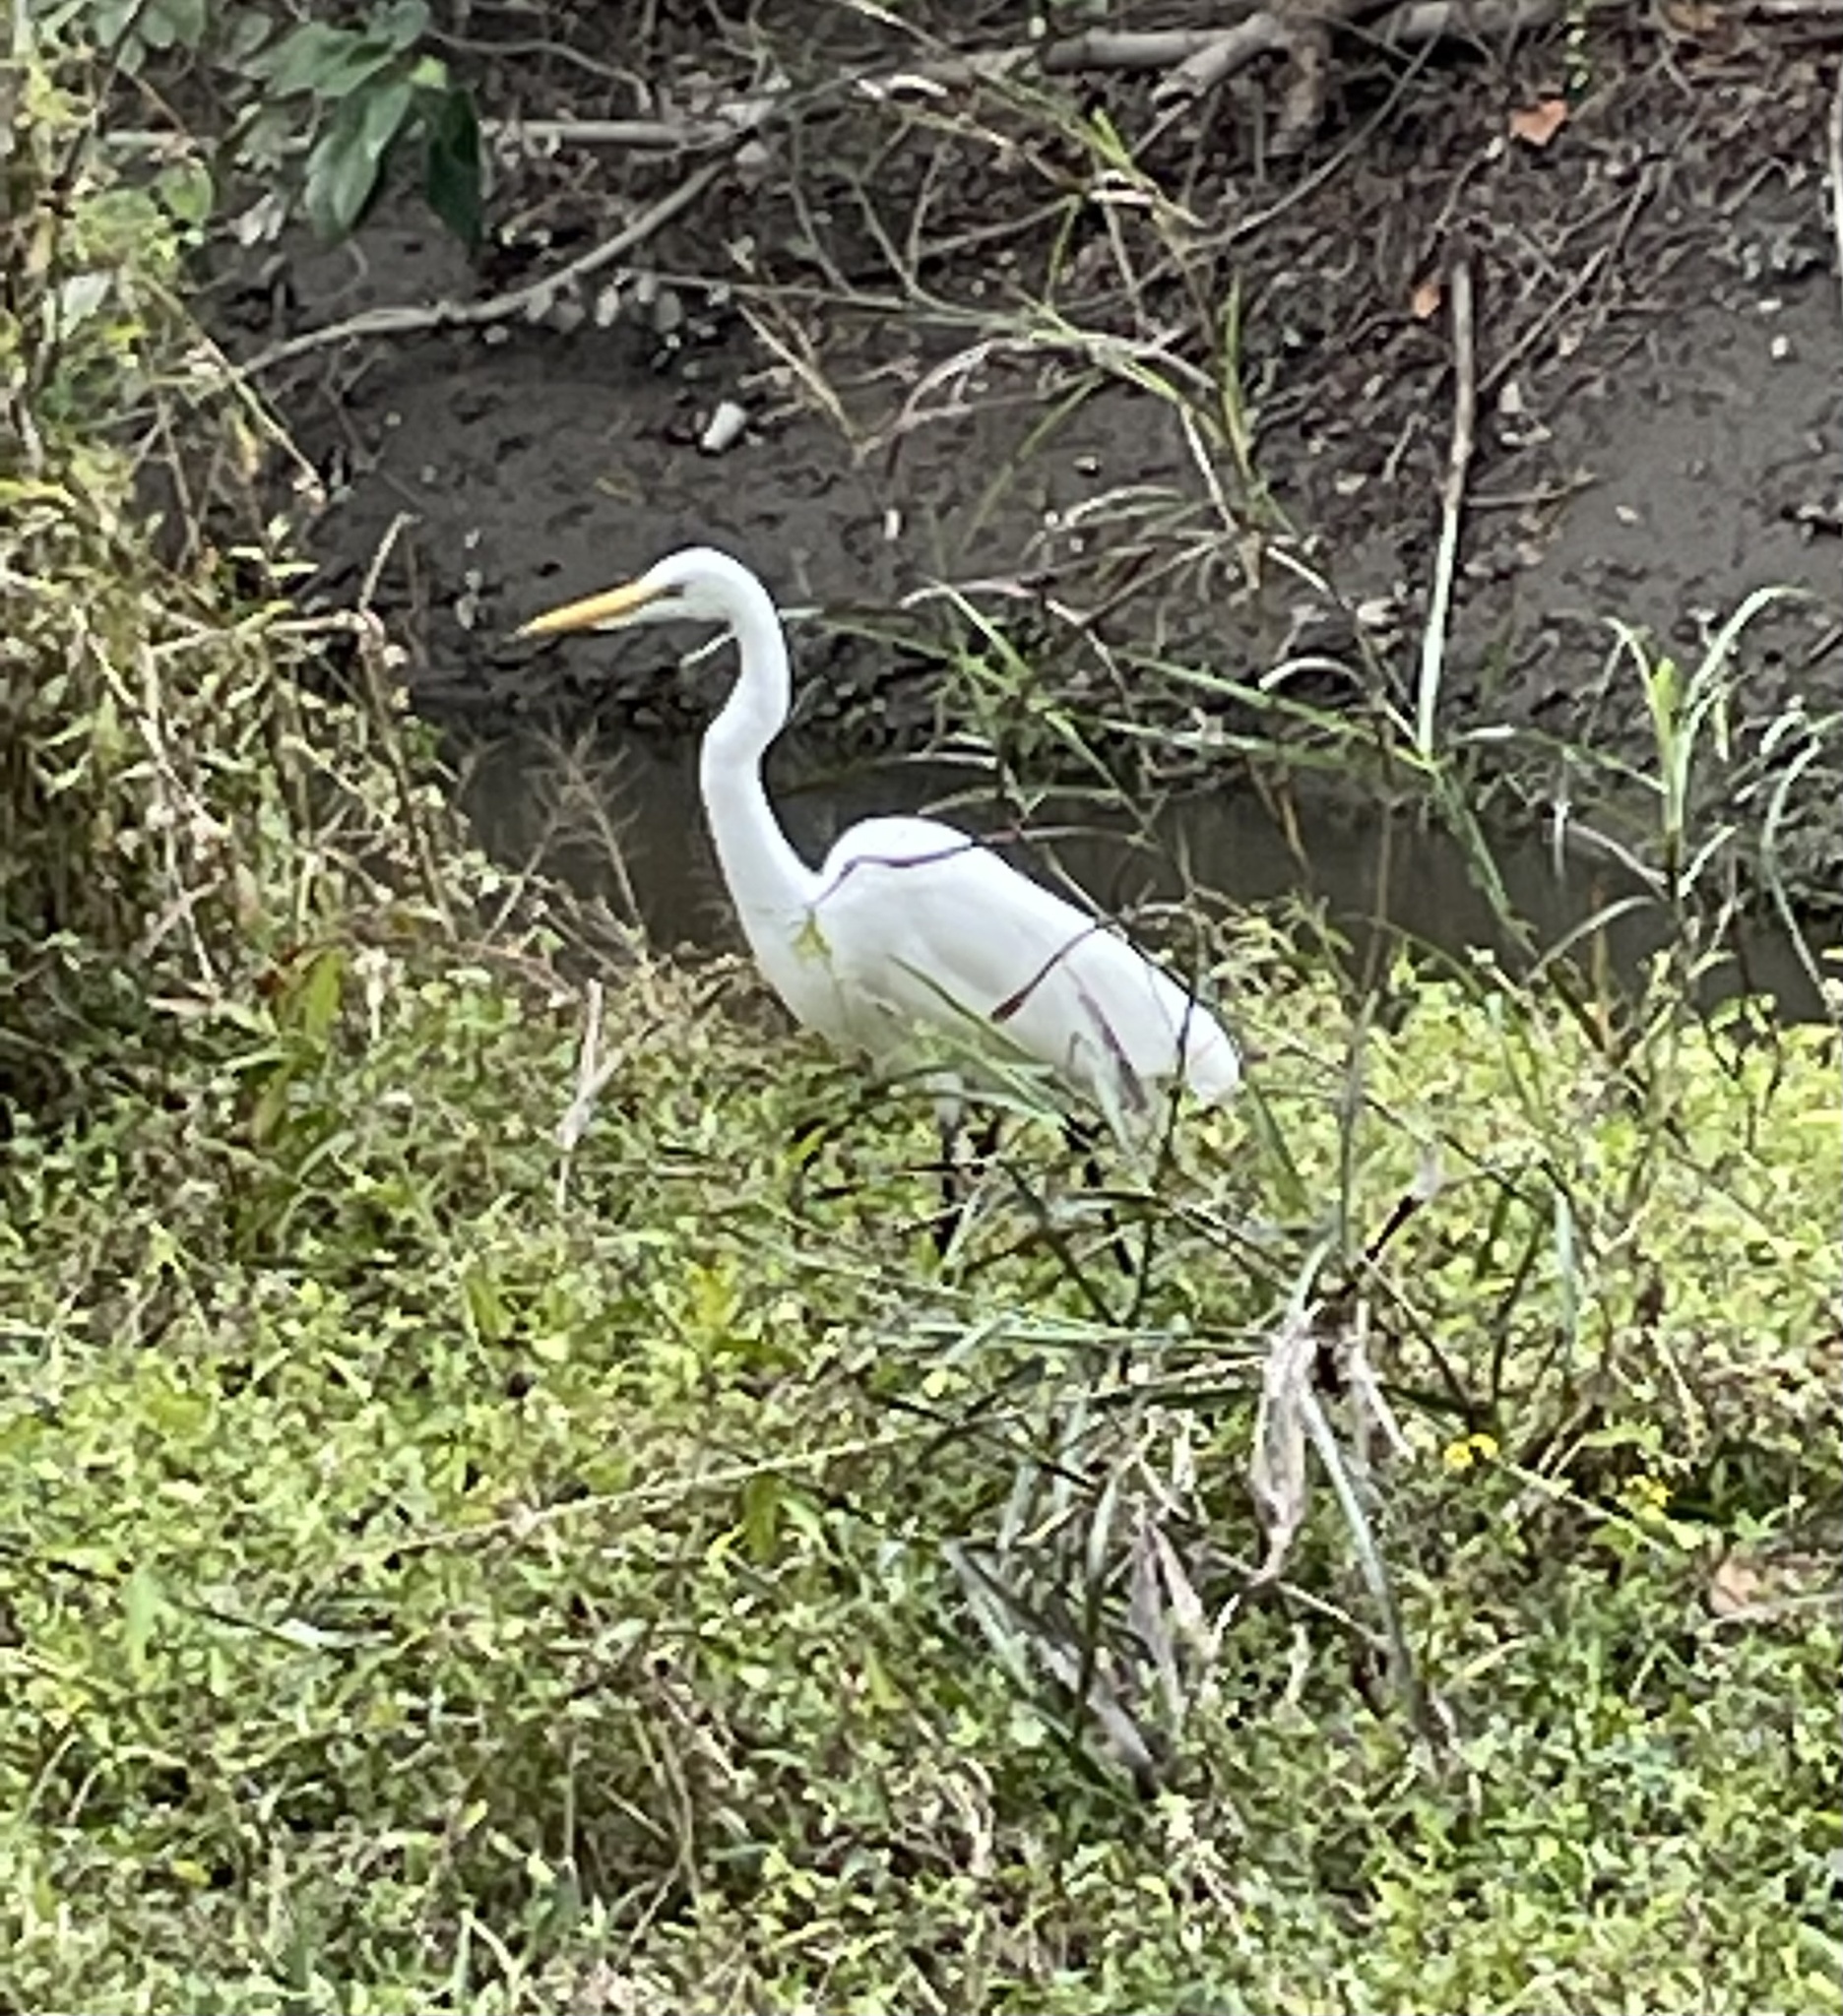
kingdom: Animalia
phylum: Chordata
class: Aves
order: Pelecaniformes
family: Ardeidae
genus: Ardea
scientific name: Ardea alba
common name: Great egret
